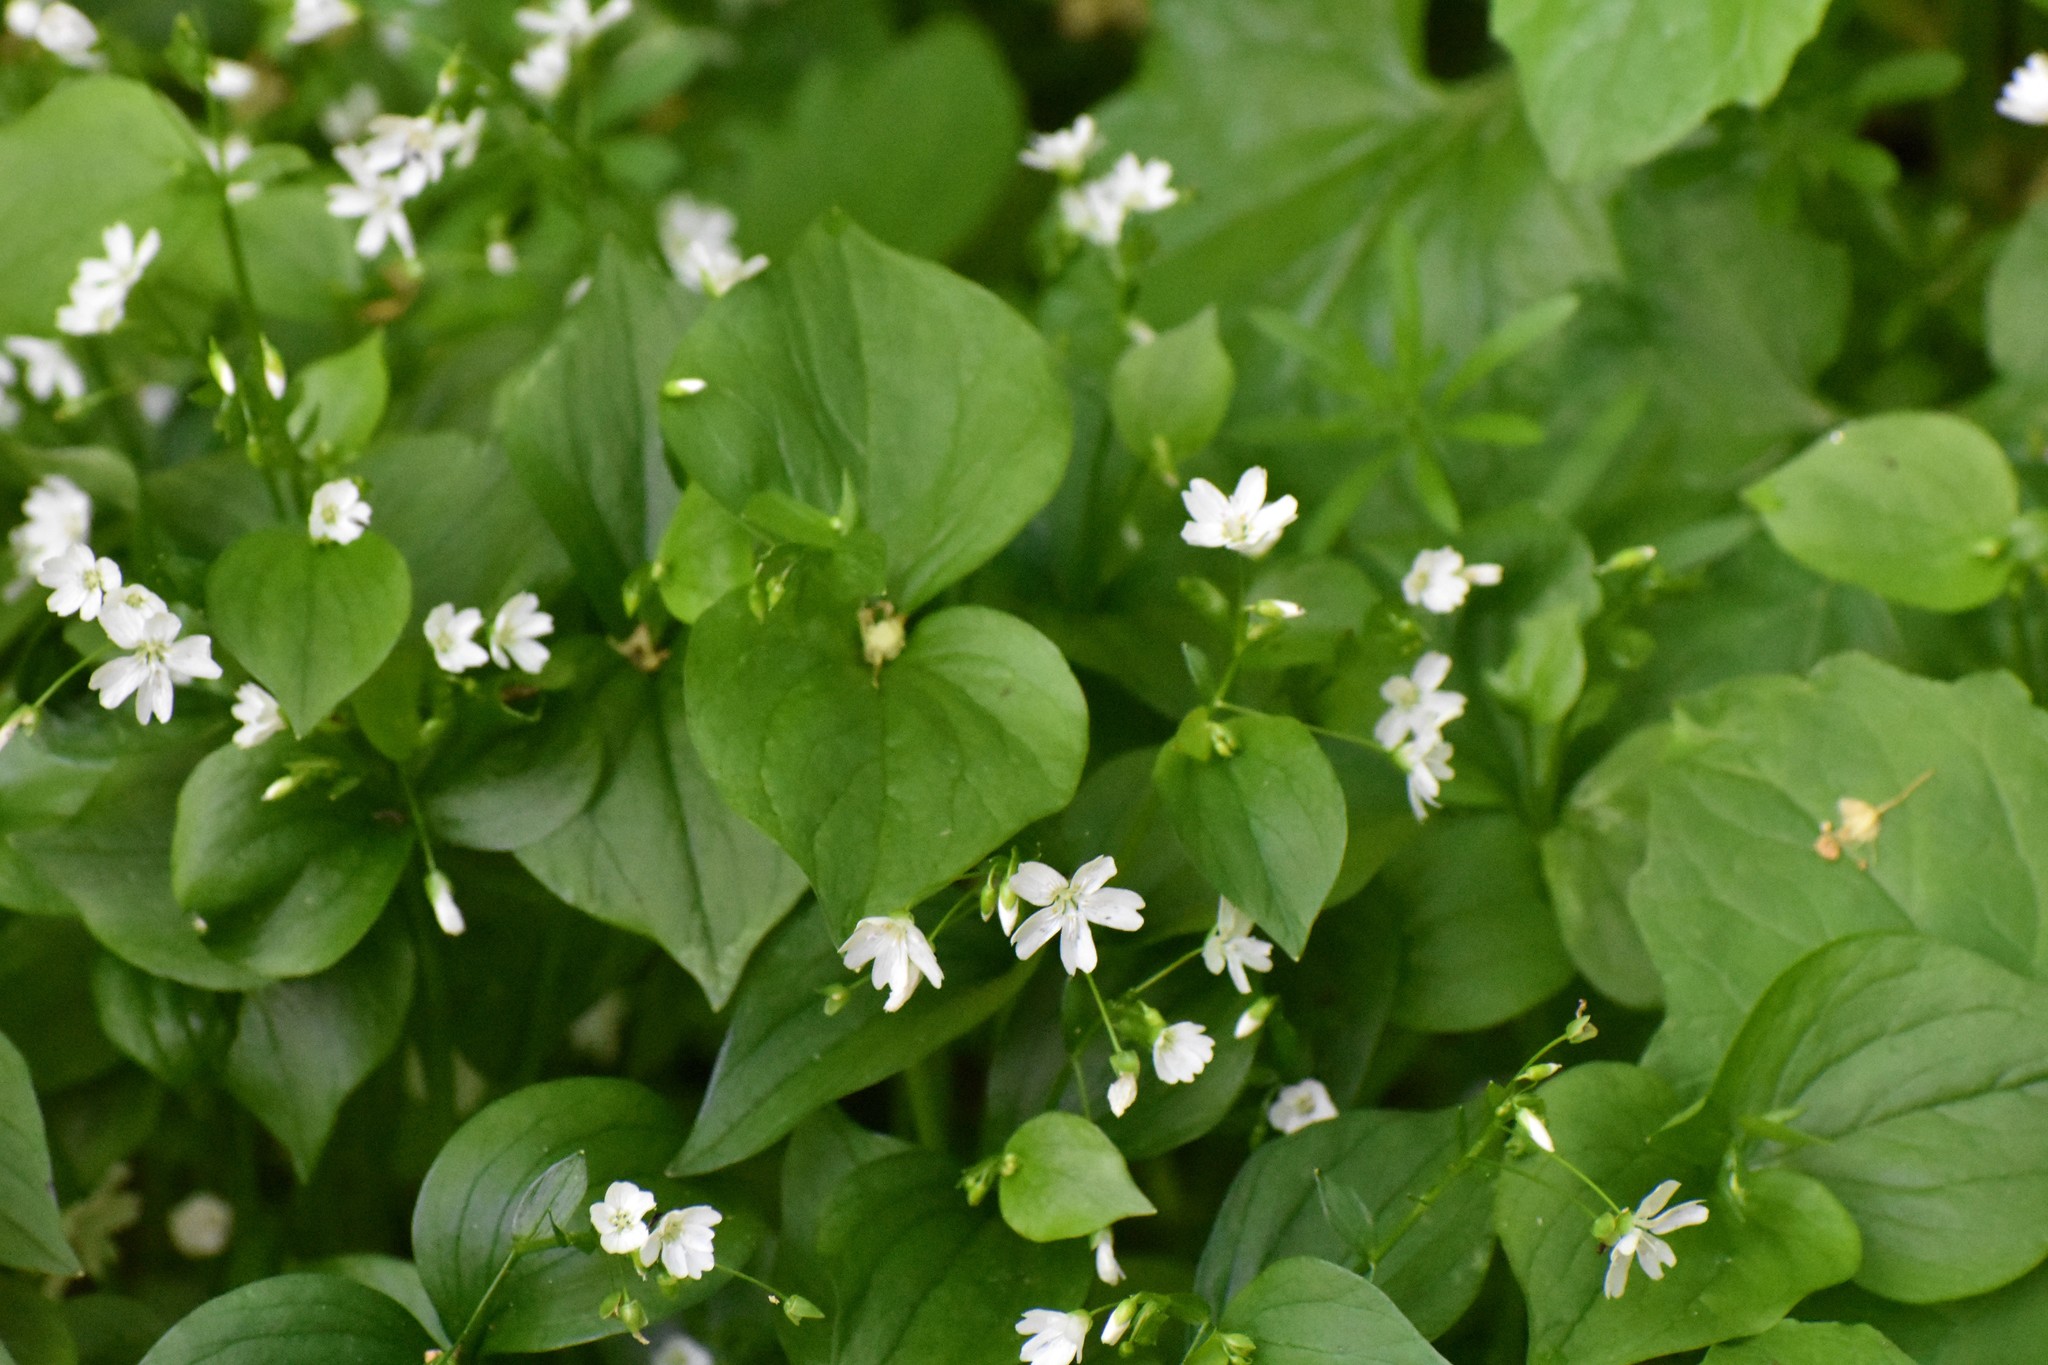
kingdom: Plantae
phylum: Tracheophyta
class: Magnoliopsida
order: Caryophyllales
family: Montiaceae
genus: Claytonia
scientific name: Claytonia sibirica
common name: Pink purslane
